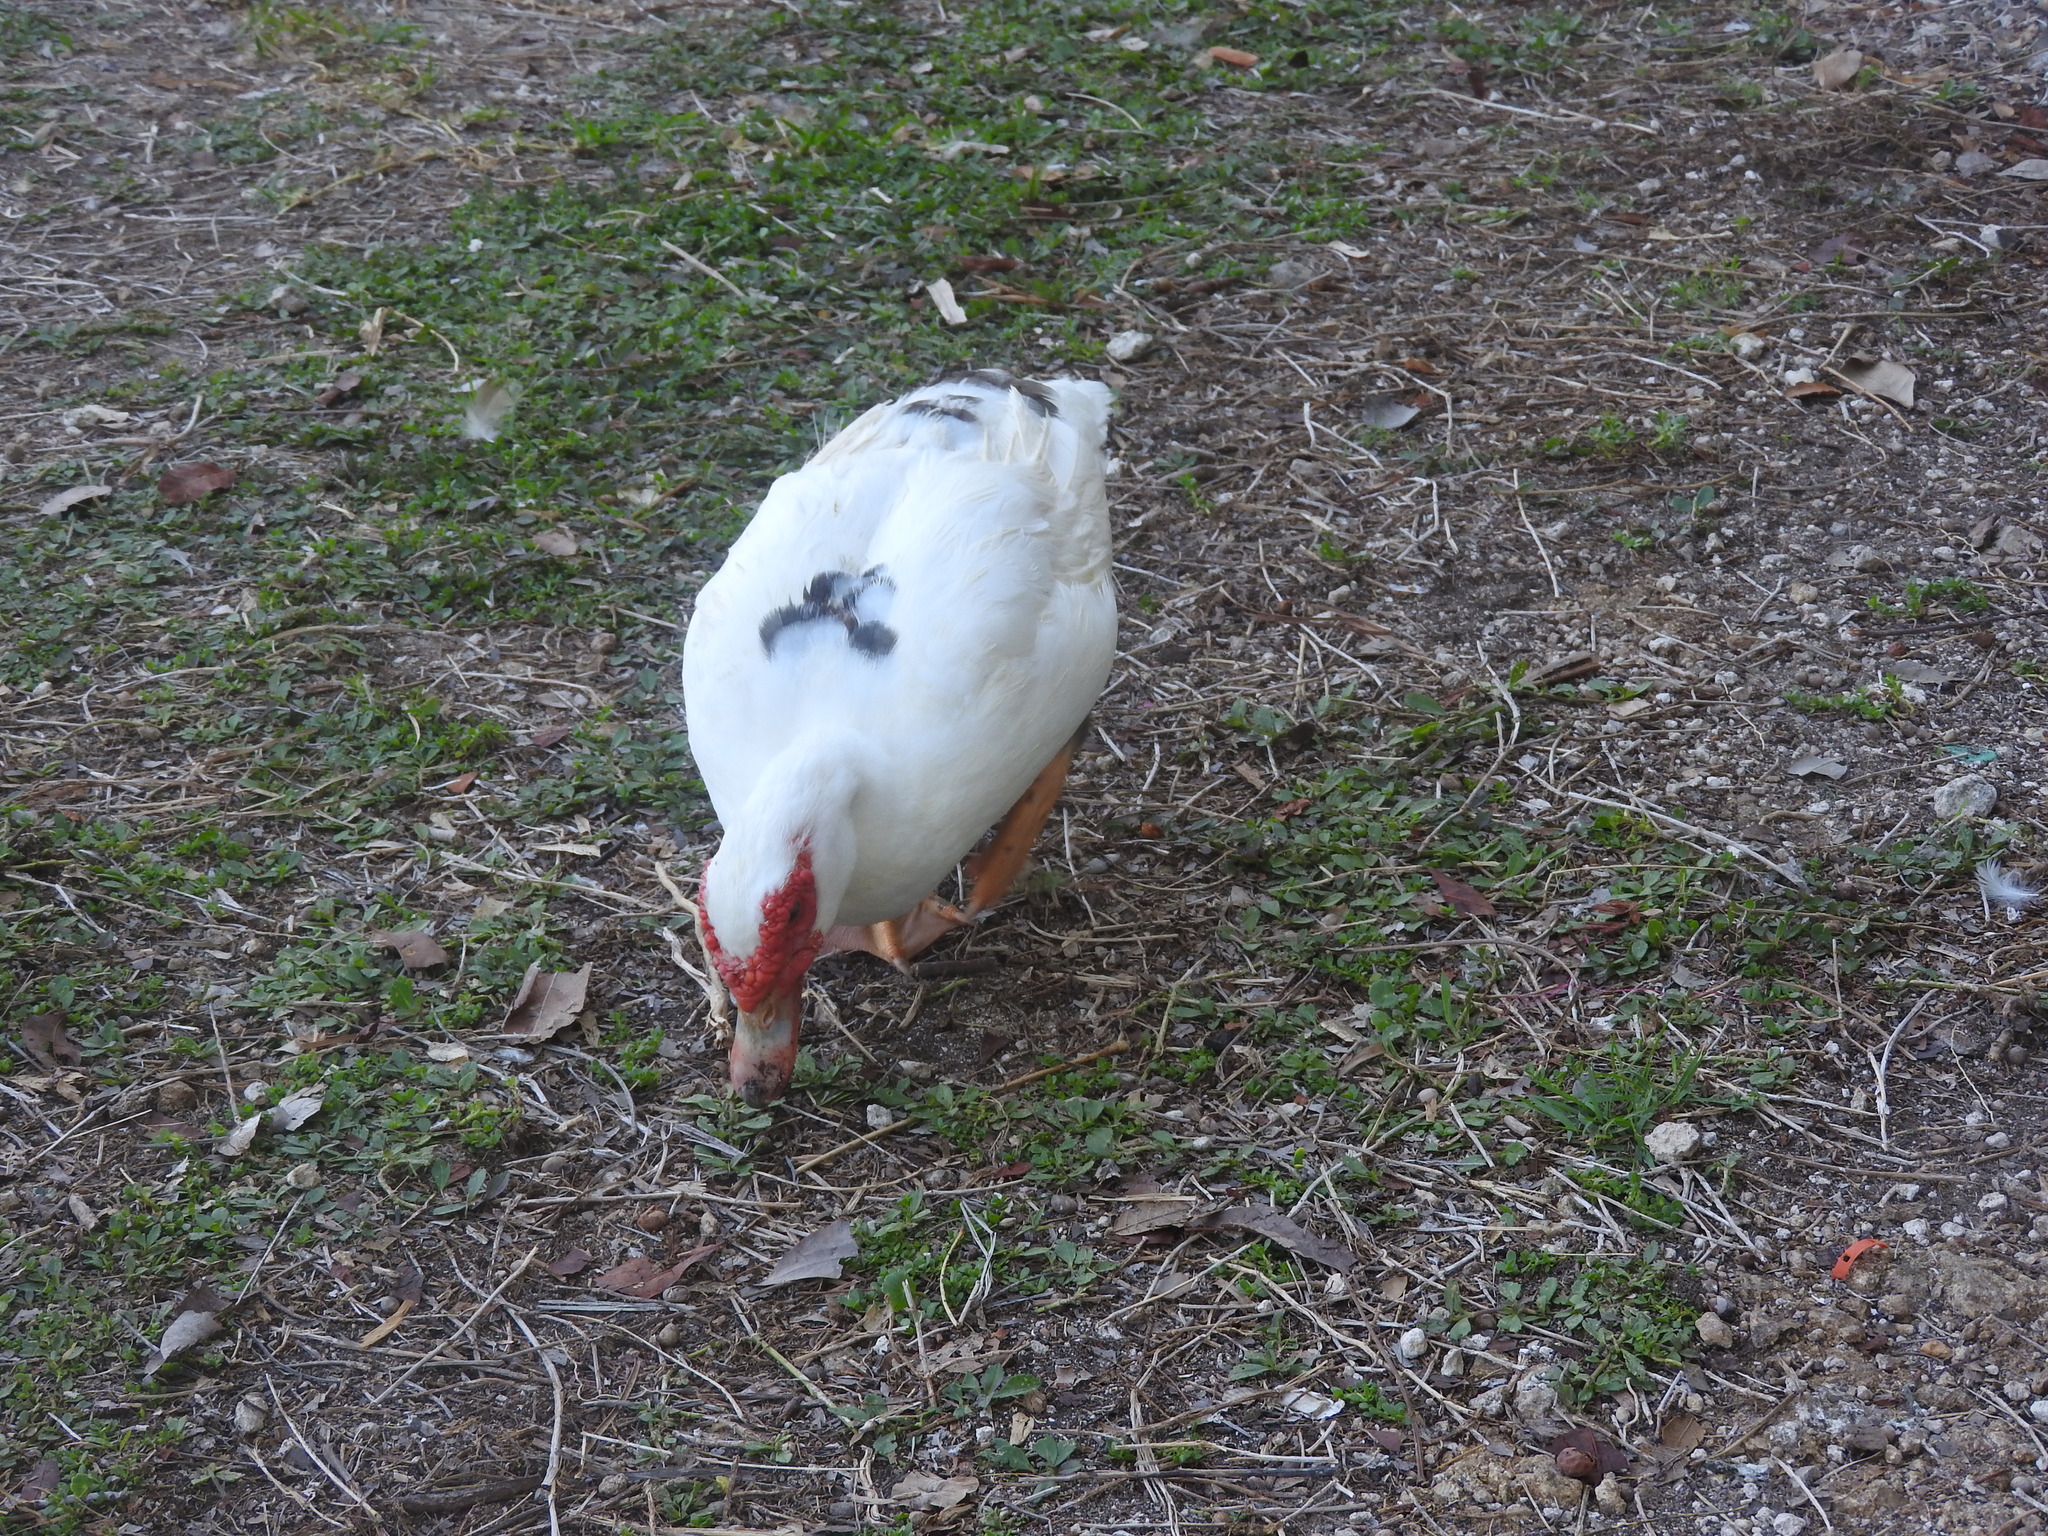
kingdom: Animalia
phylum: Chordata
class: Aves
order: Anseriformes
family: Anatidae
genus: Cairina
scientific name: Cairina moschata
